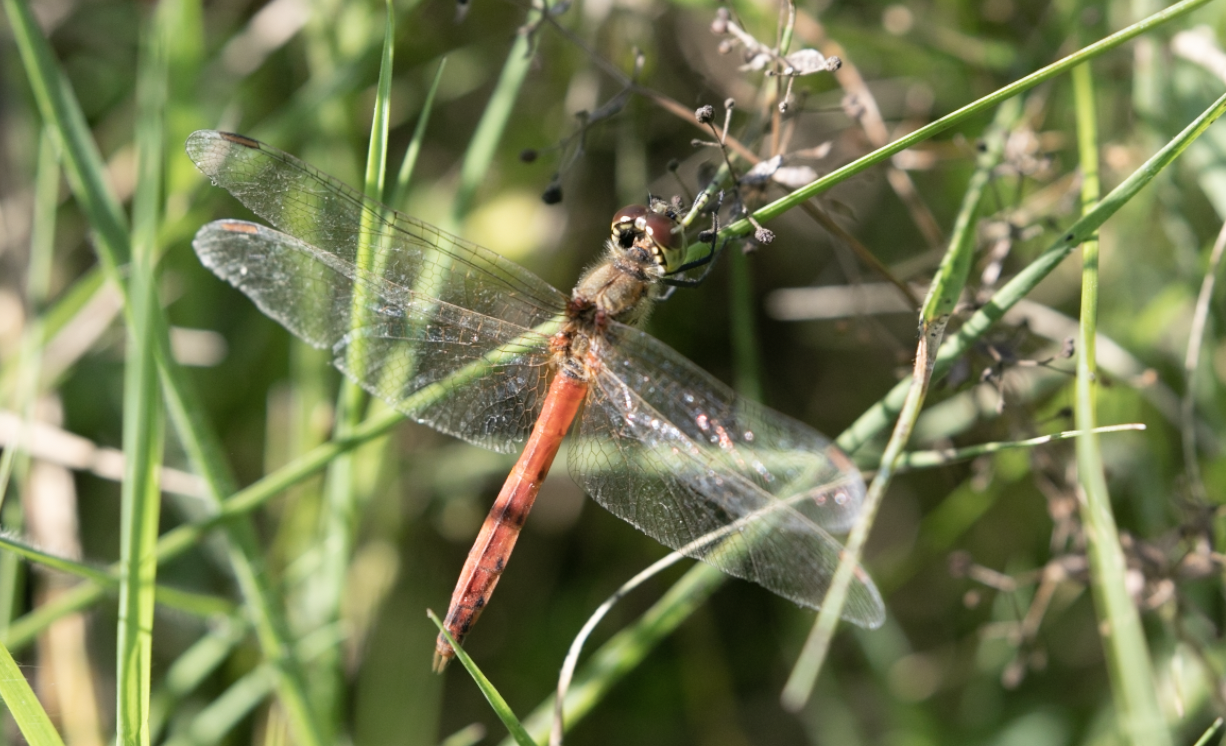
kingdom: Animalia
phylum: Arthropoda
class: Insecta
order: Odonata
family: Libellulidae
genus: Sympetrum
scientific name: Sympetrum depressiusculum
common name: Spotted darter
